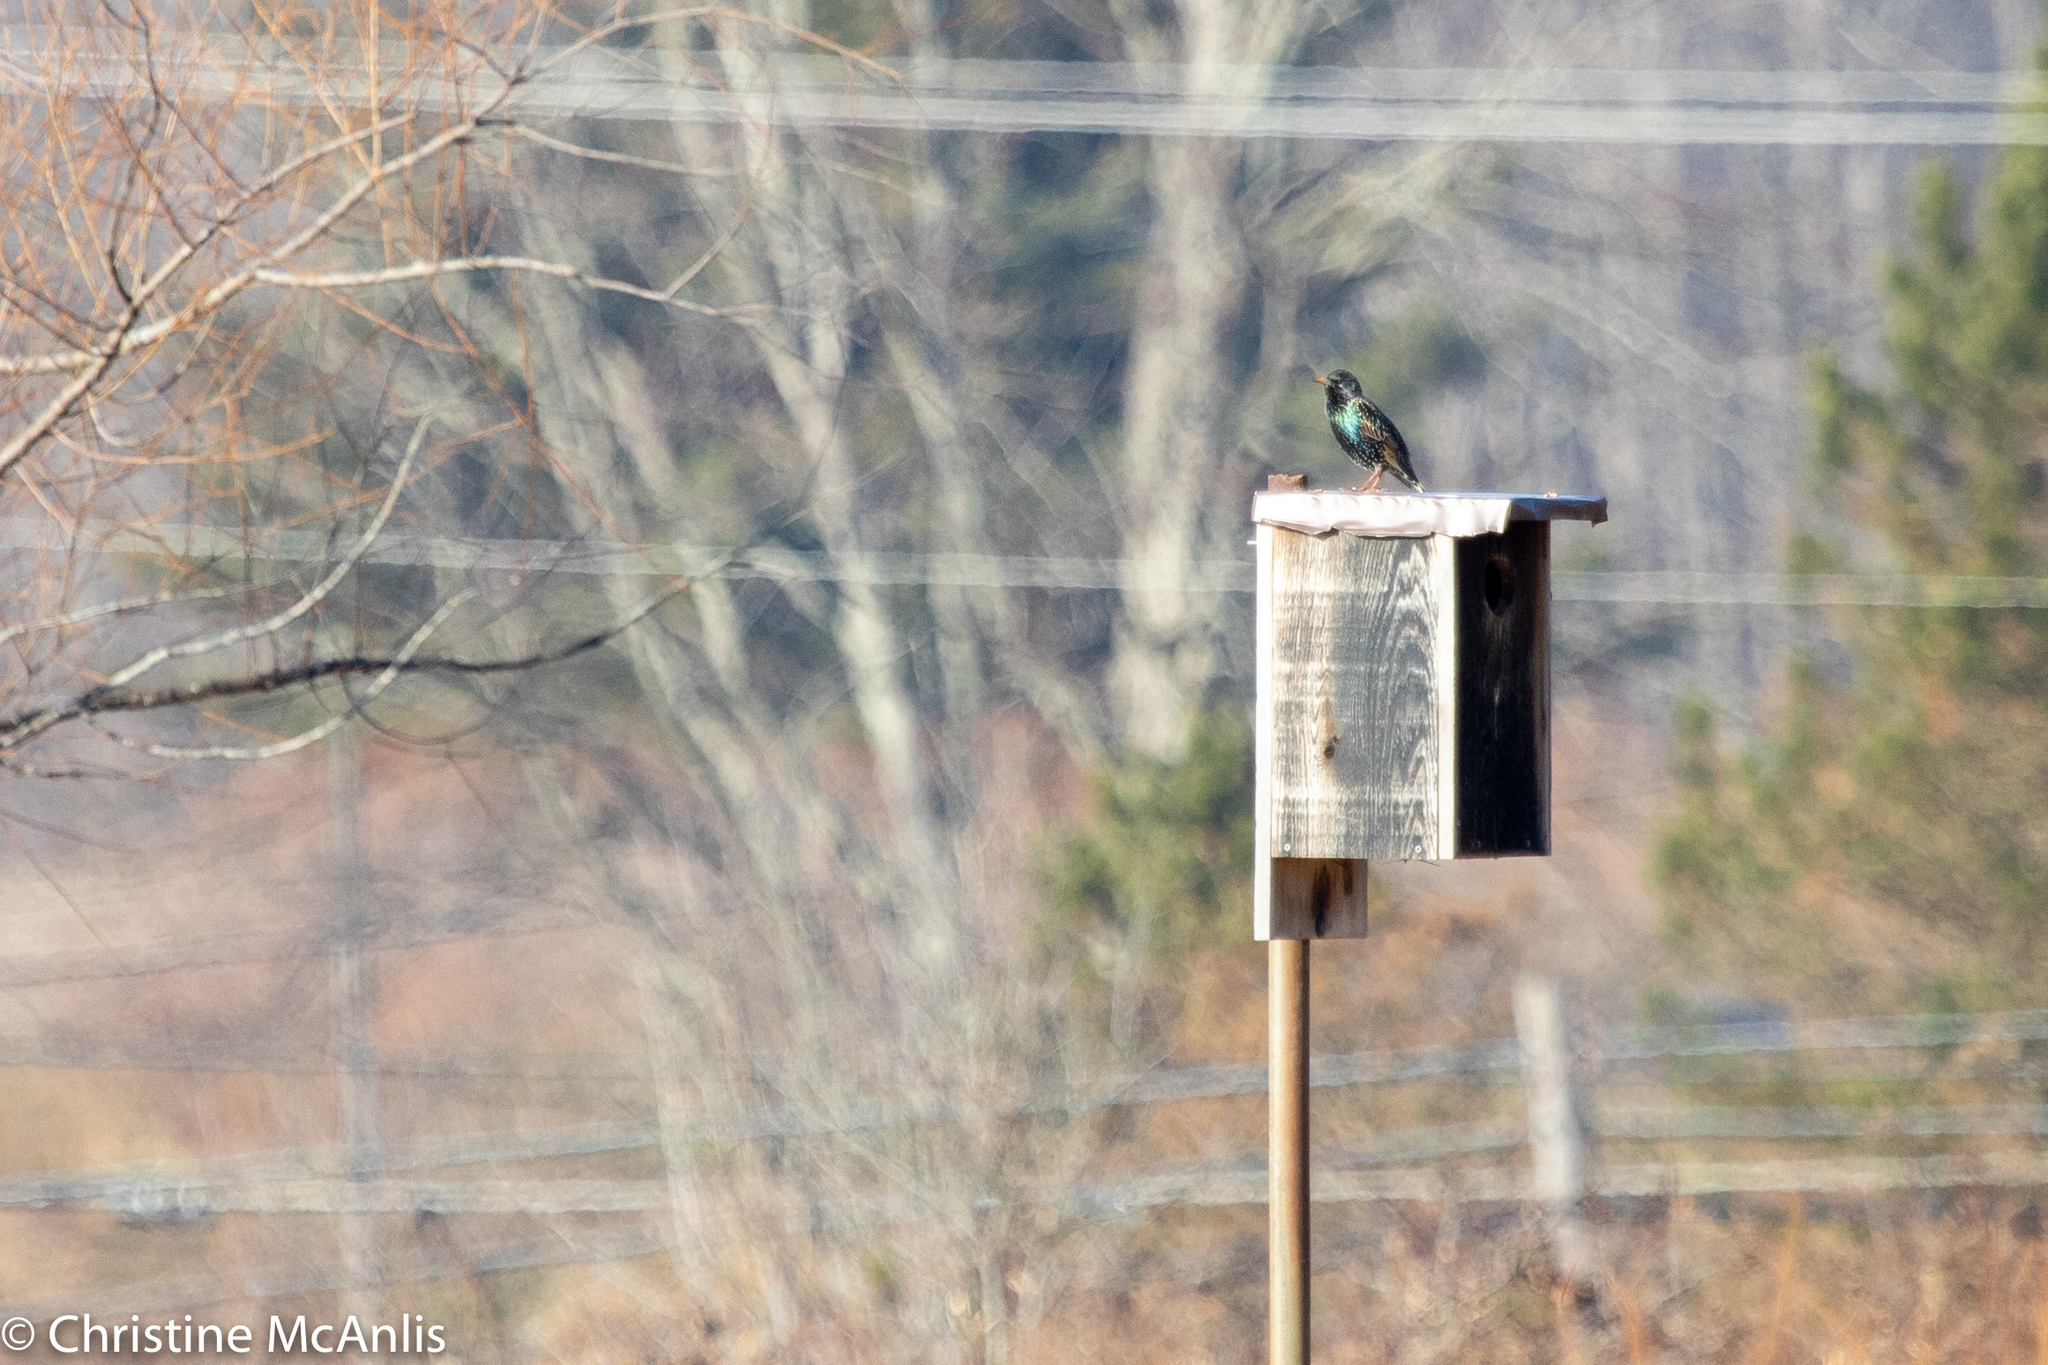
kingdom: Animalia
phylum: Chordata
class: Aves
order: Passeriformes
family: Sturnidae
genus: Sturnus
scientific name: Sturnus vulgaris
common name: Common starling
